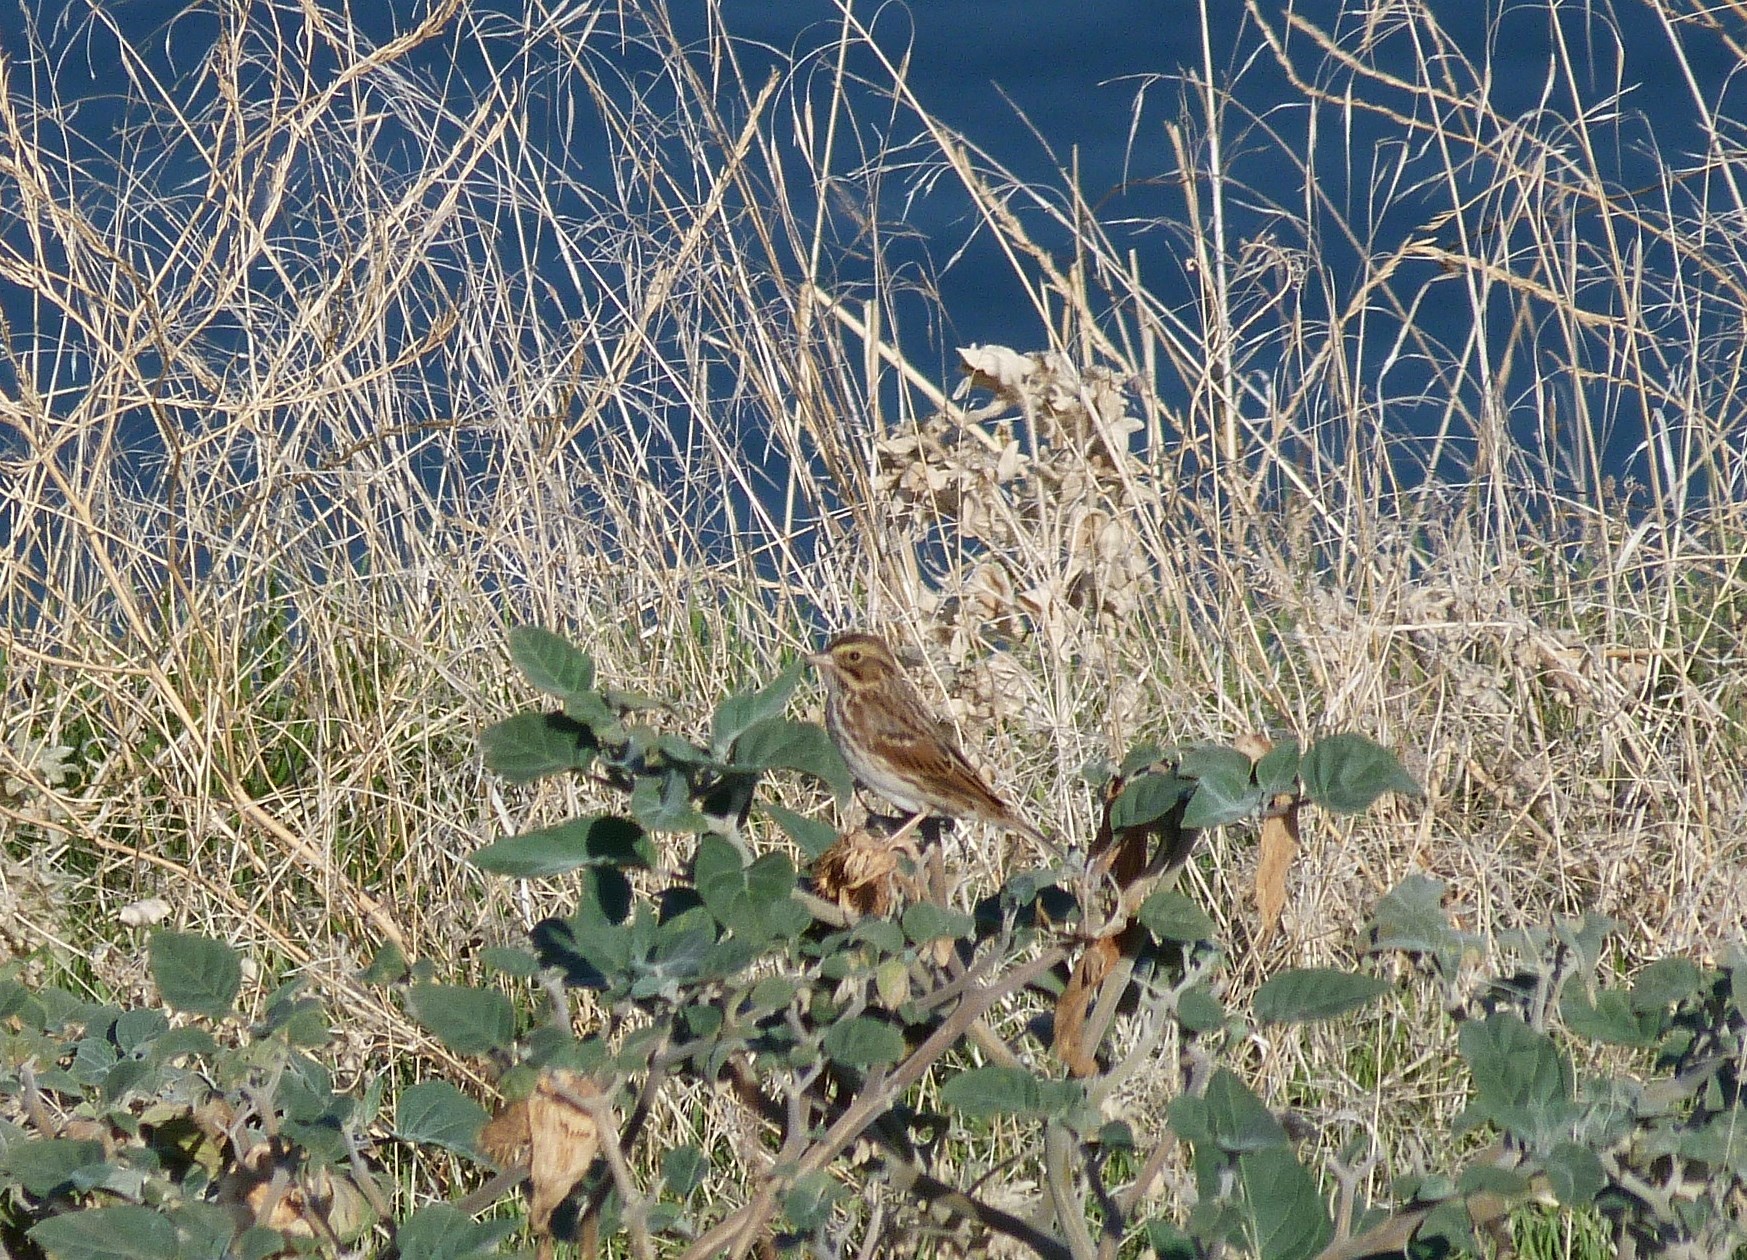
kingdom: Animalia
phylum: Chordata
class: Aves
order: Passeriformes
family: Passerellidae
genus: Passerculus
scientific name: Passerculus sandwichensis
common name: Savannah sparrow
